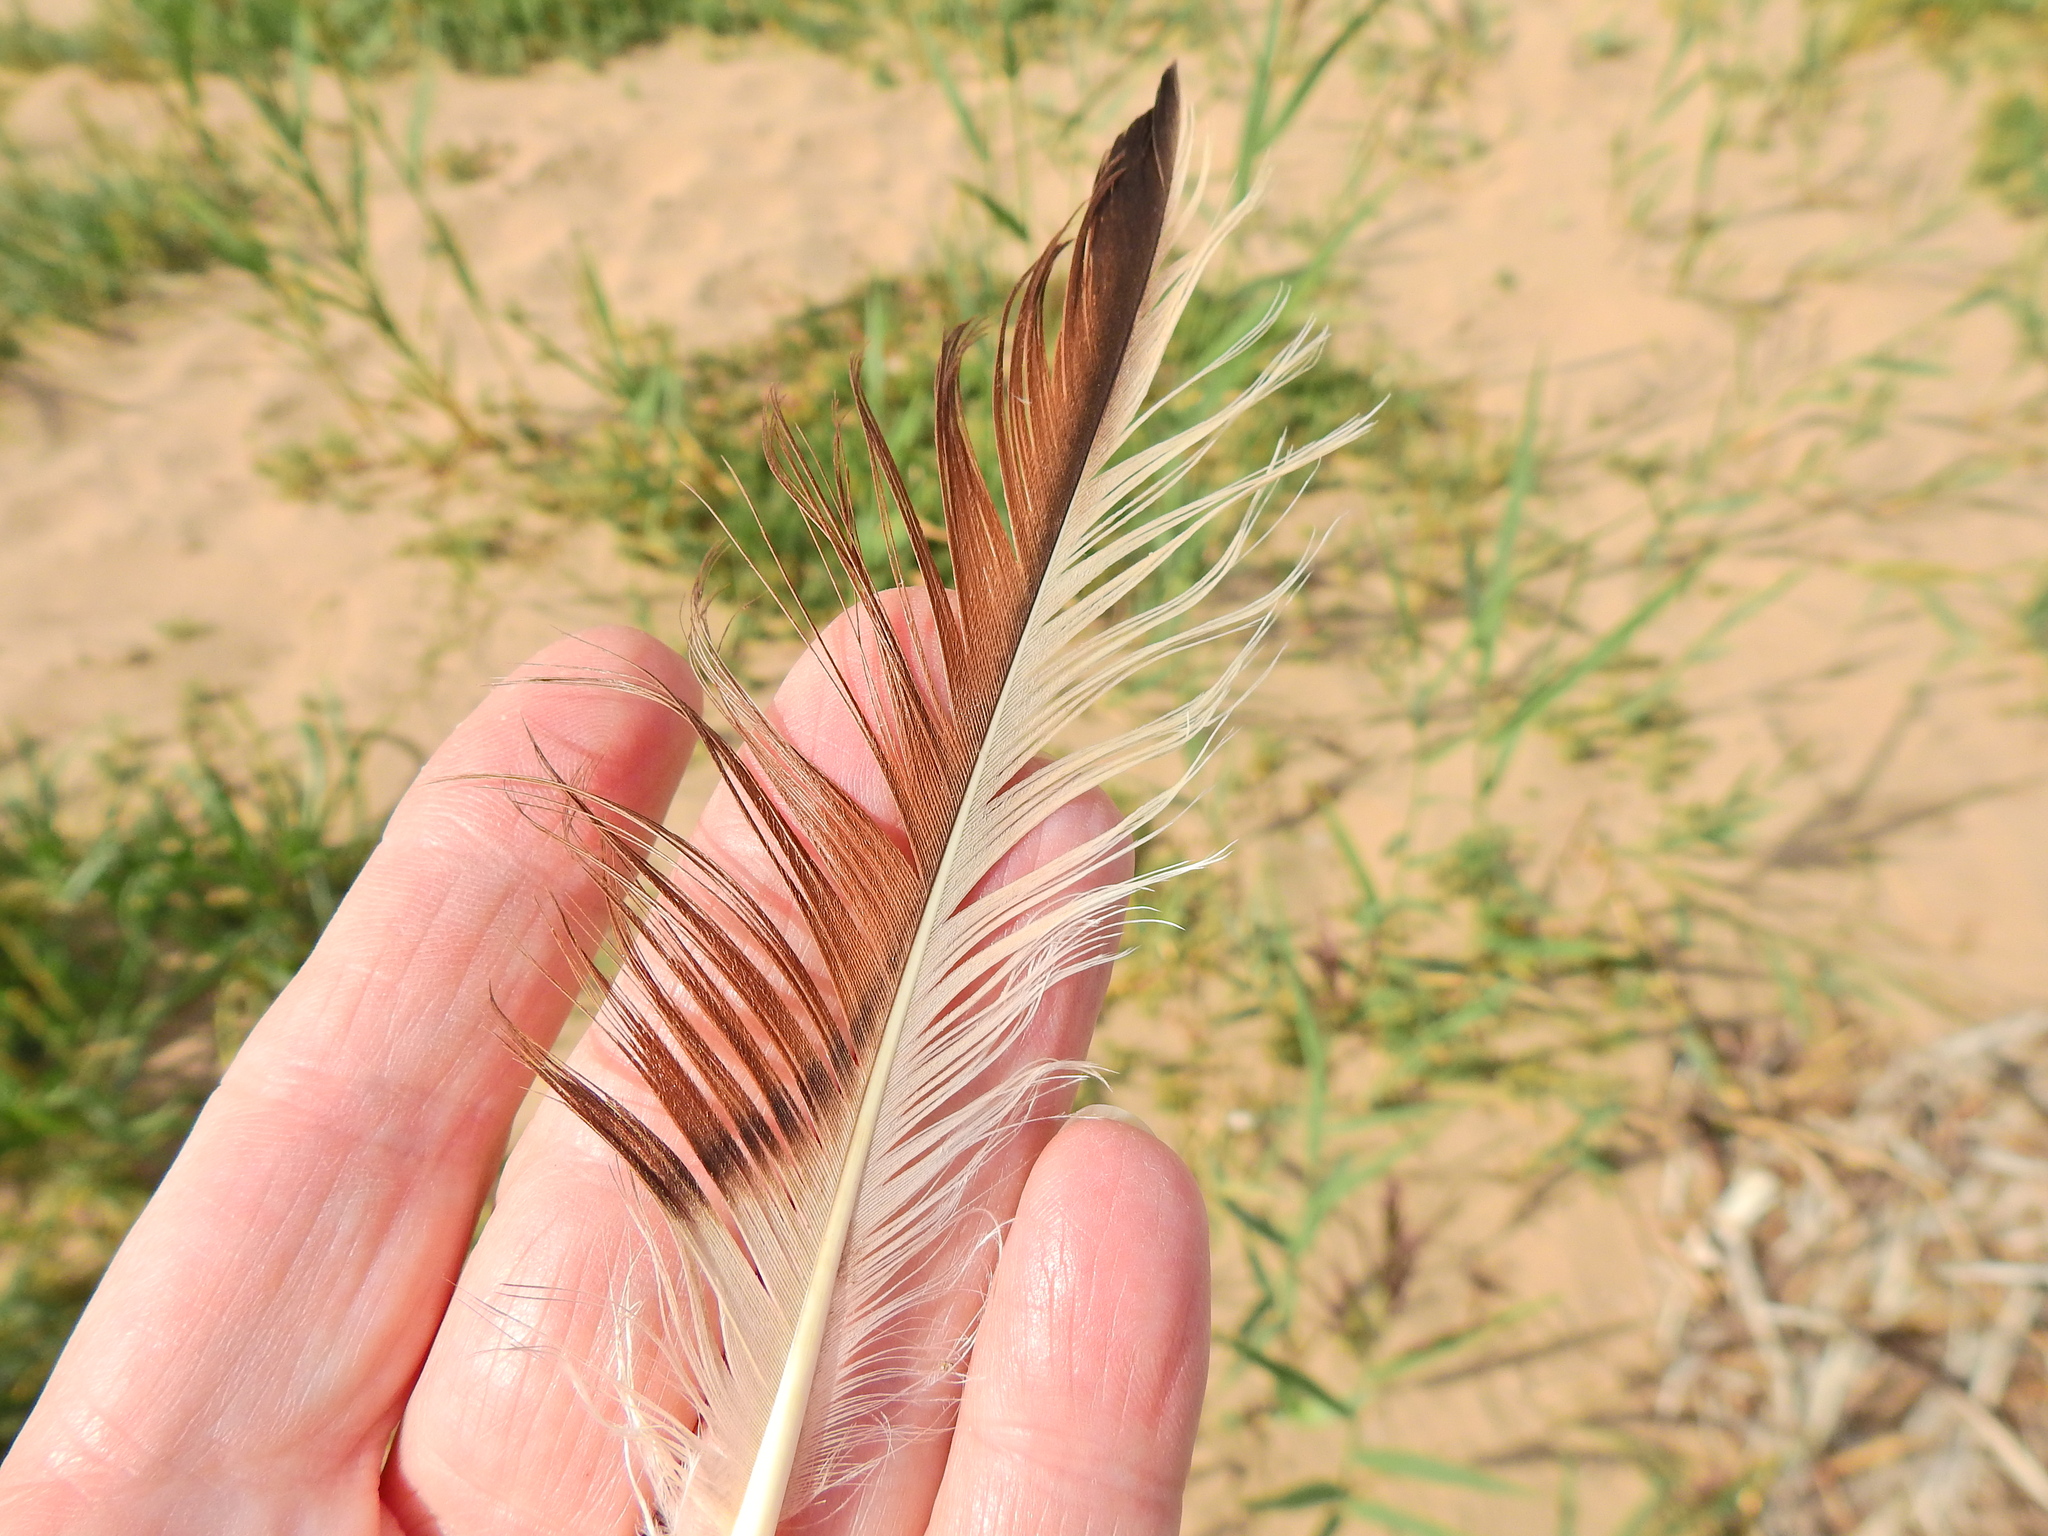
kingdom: Animalia
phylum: Chordata
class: Aves
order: Anseriformes
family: Anatidae
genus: Tadorna
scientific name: Tadorna tadorna
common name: Common shelduck
